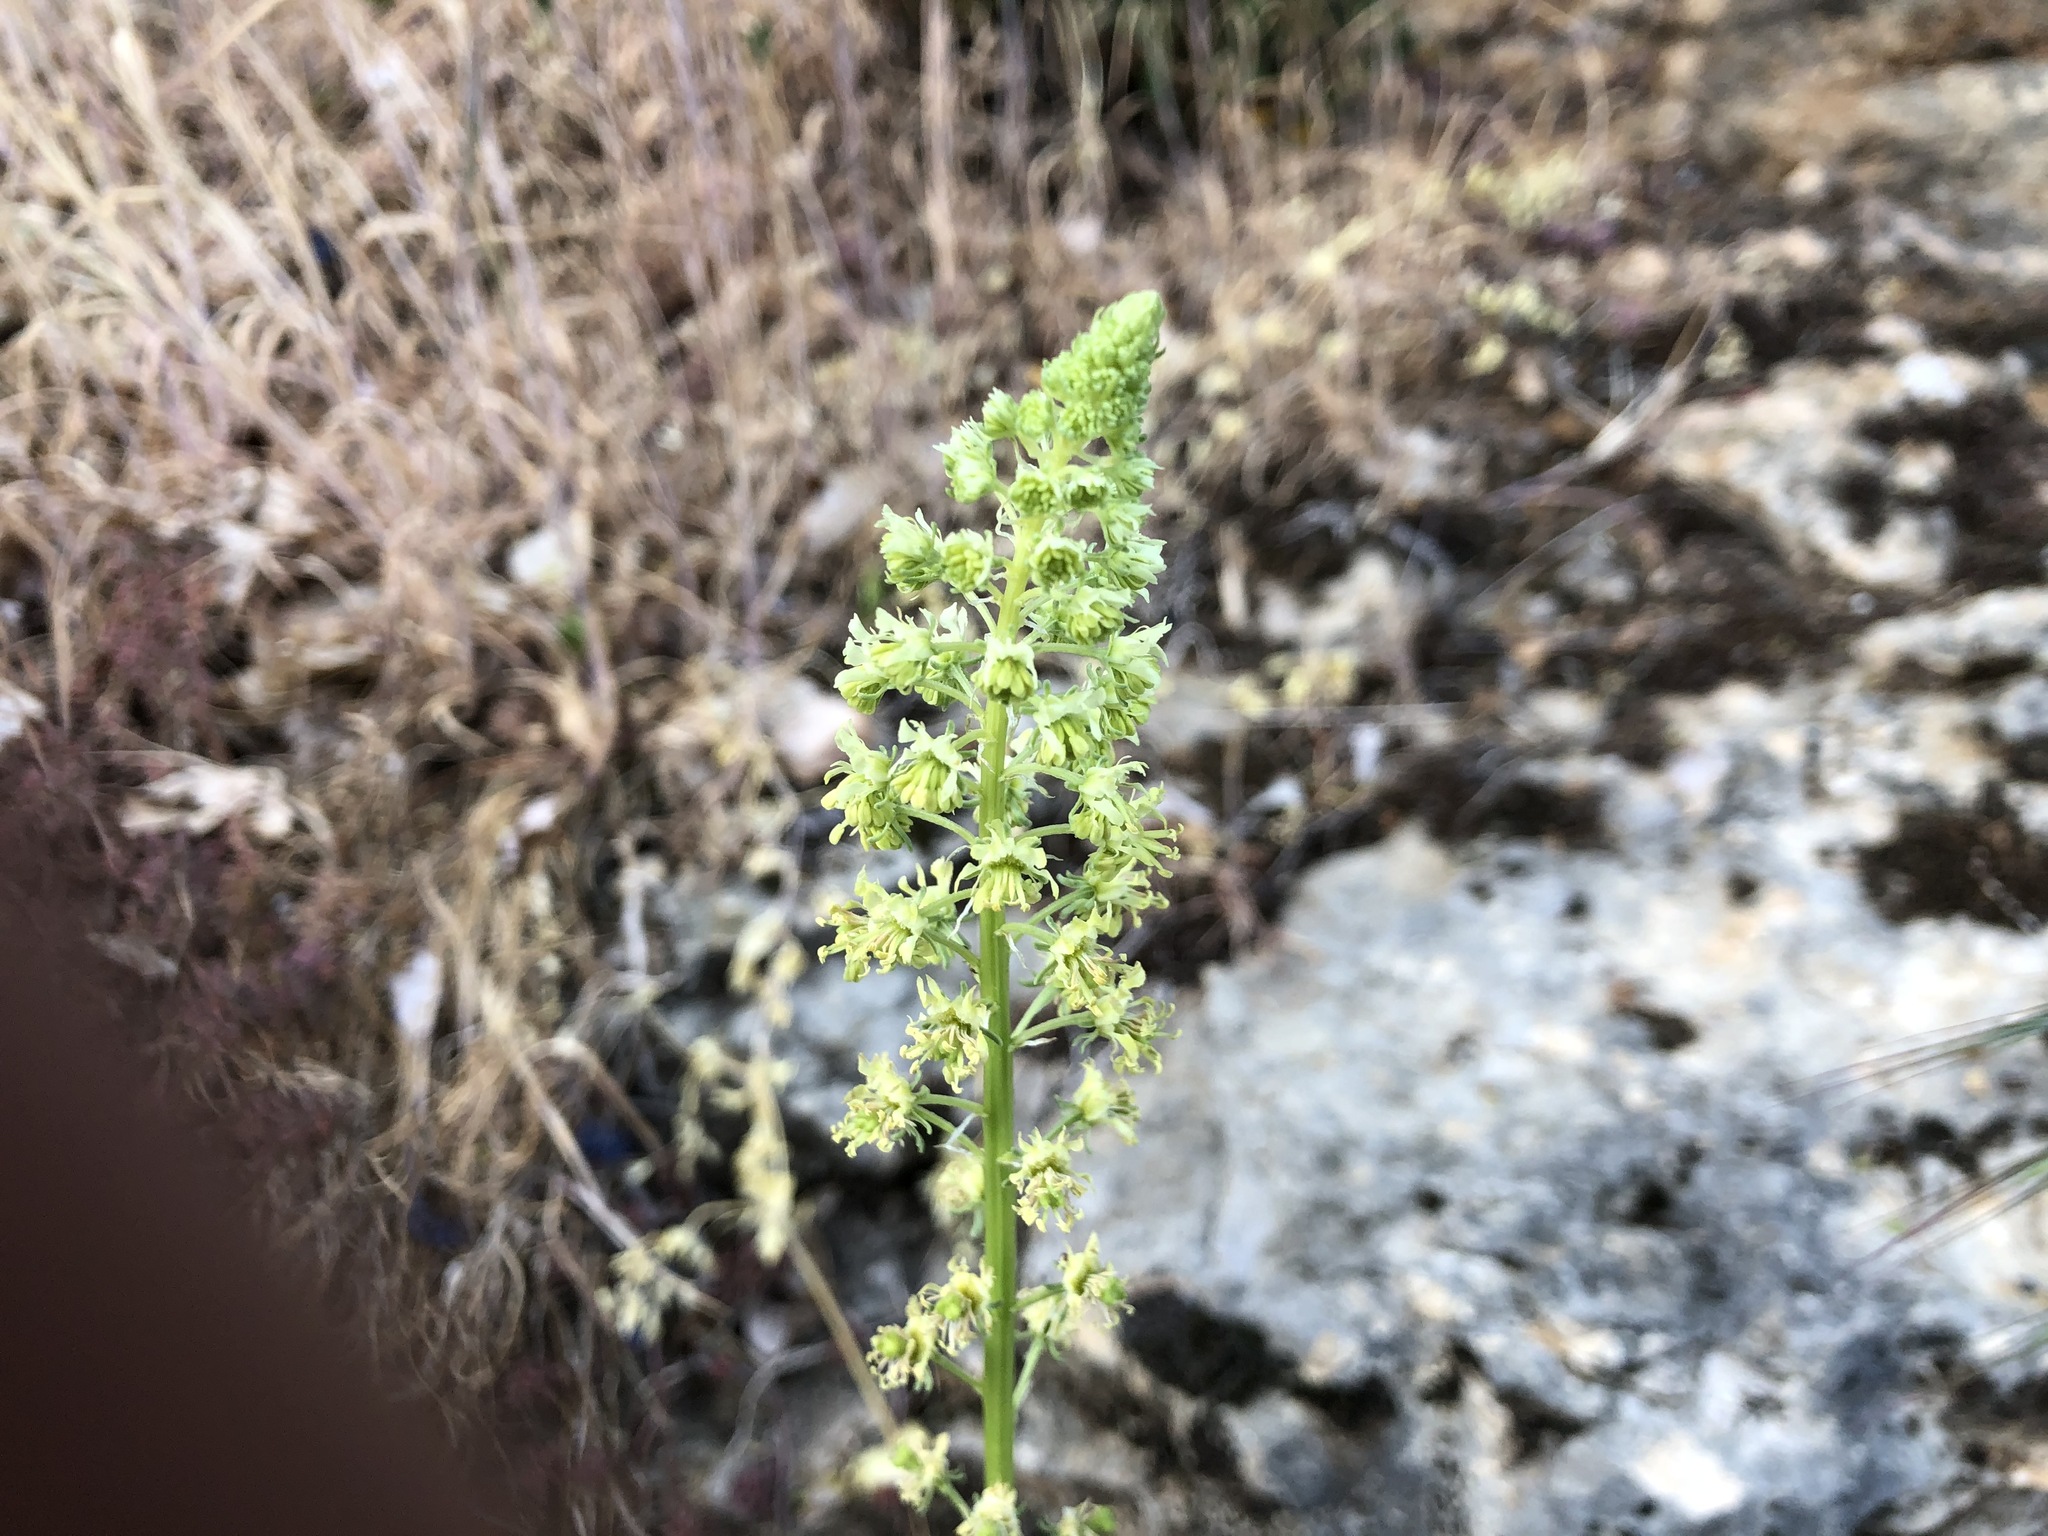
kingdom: Plantae
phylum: Tracheophyta
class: Magnoliopsida
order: Brassicales
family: Resedaceae
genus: Reseda
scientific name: Reseda lutea
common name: Wild mignonette
